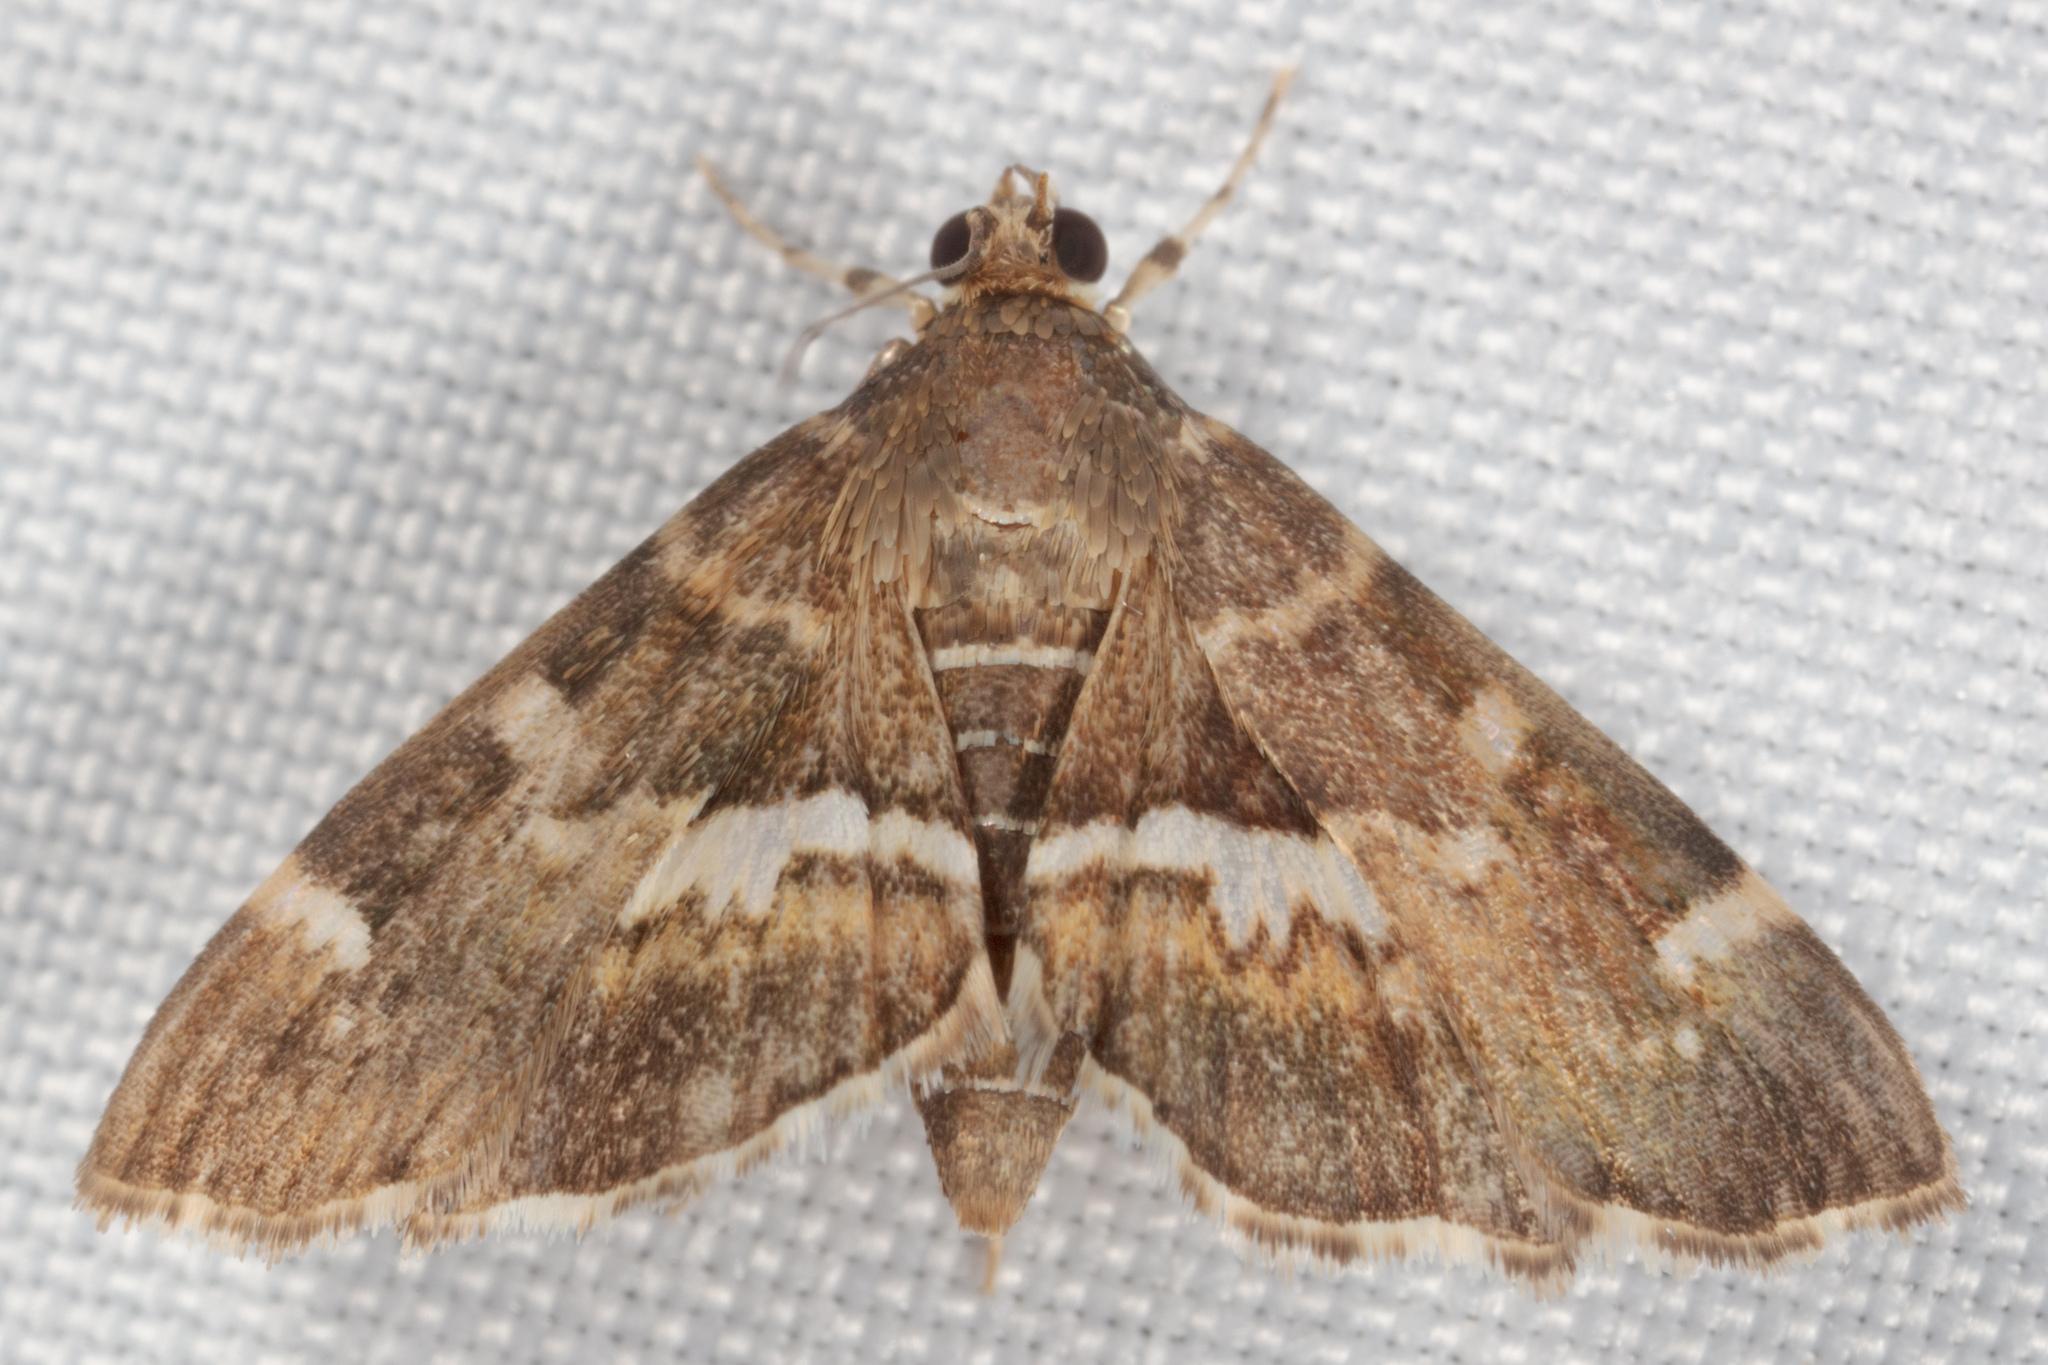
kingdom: Animalia
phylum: Arthropoda
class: Insecta
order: Lepidoptera
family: Crambidae
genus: Hymenia
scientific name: Hymenia perspectalis
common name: Spotted beet webworm
